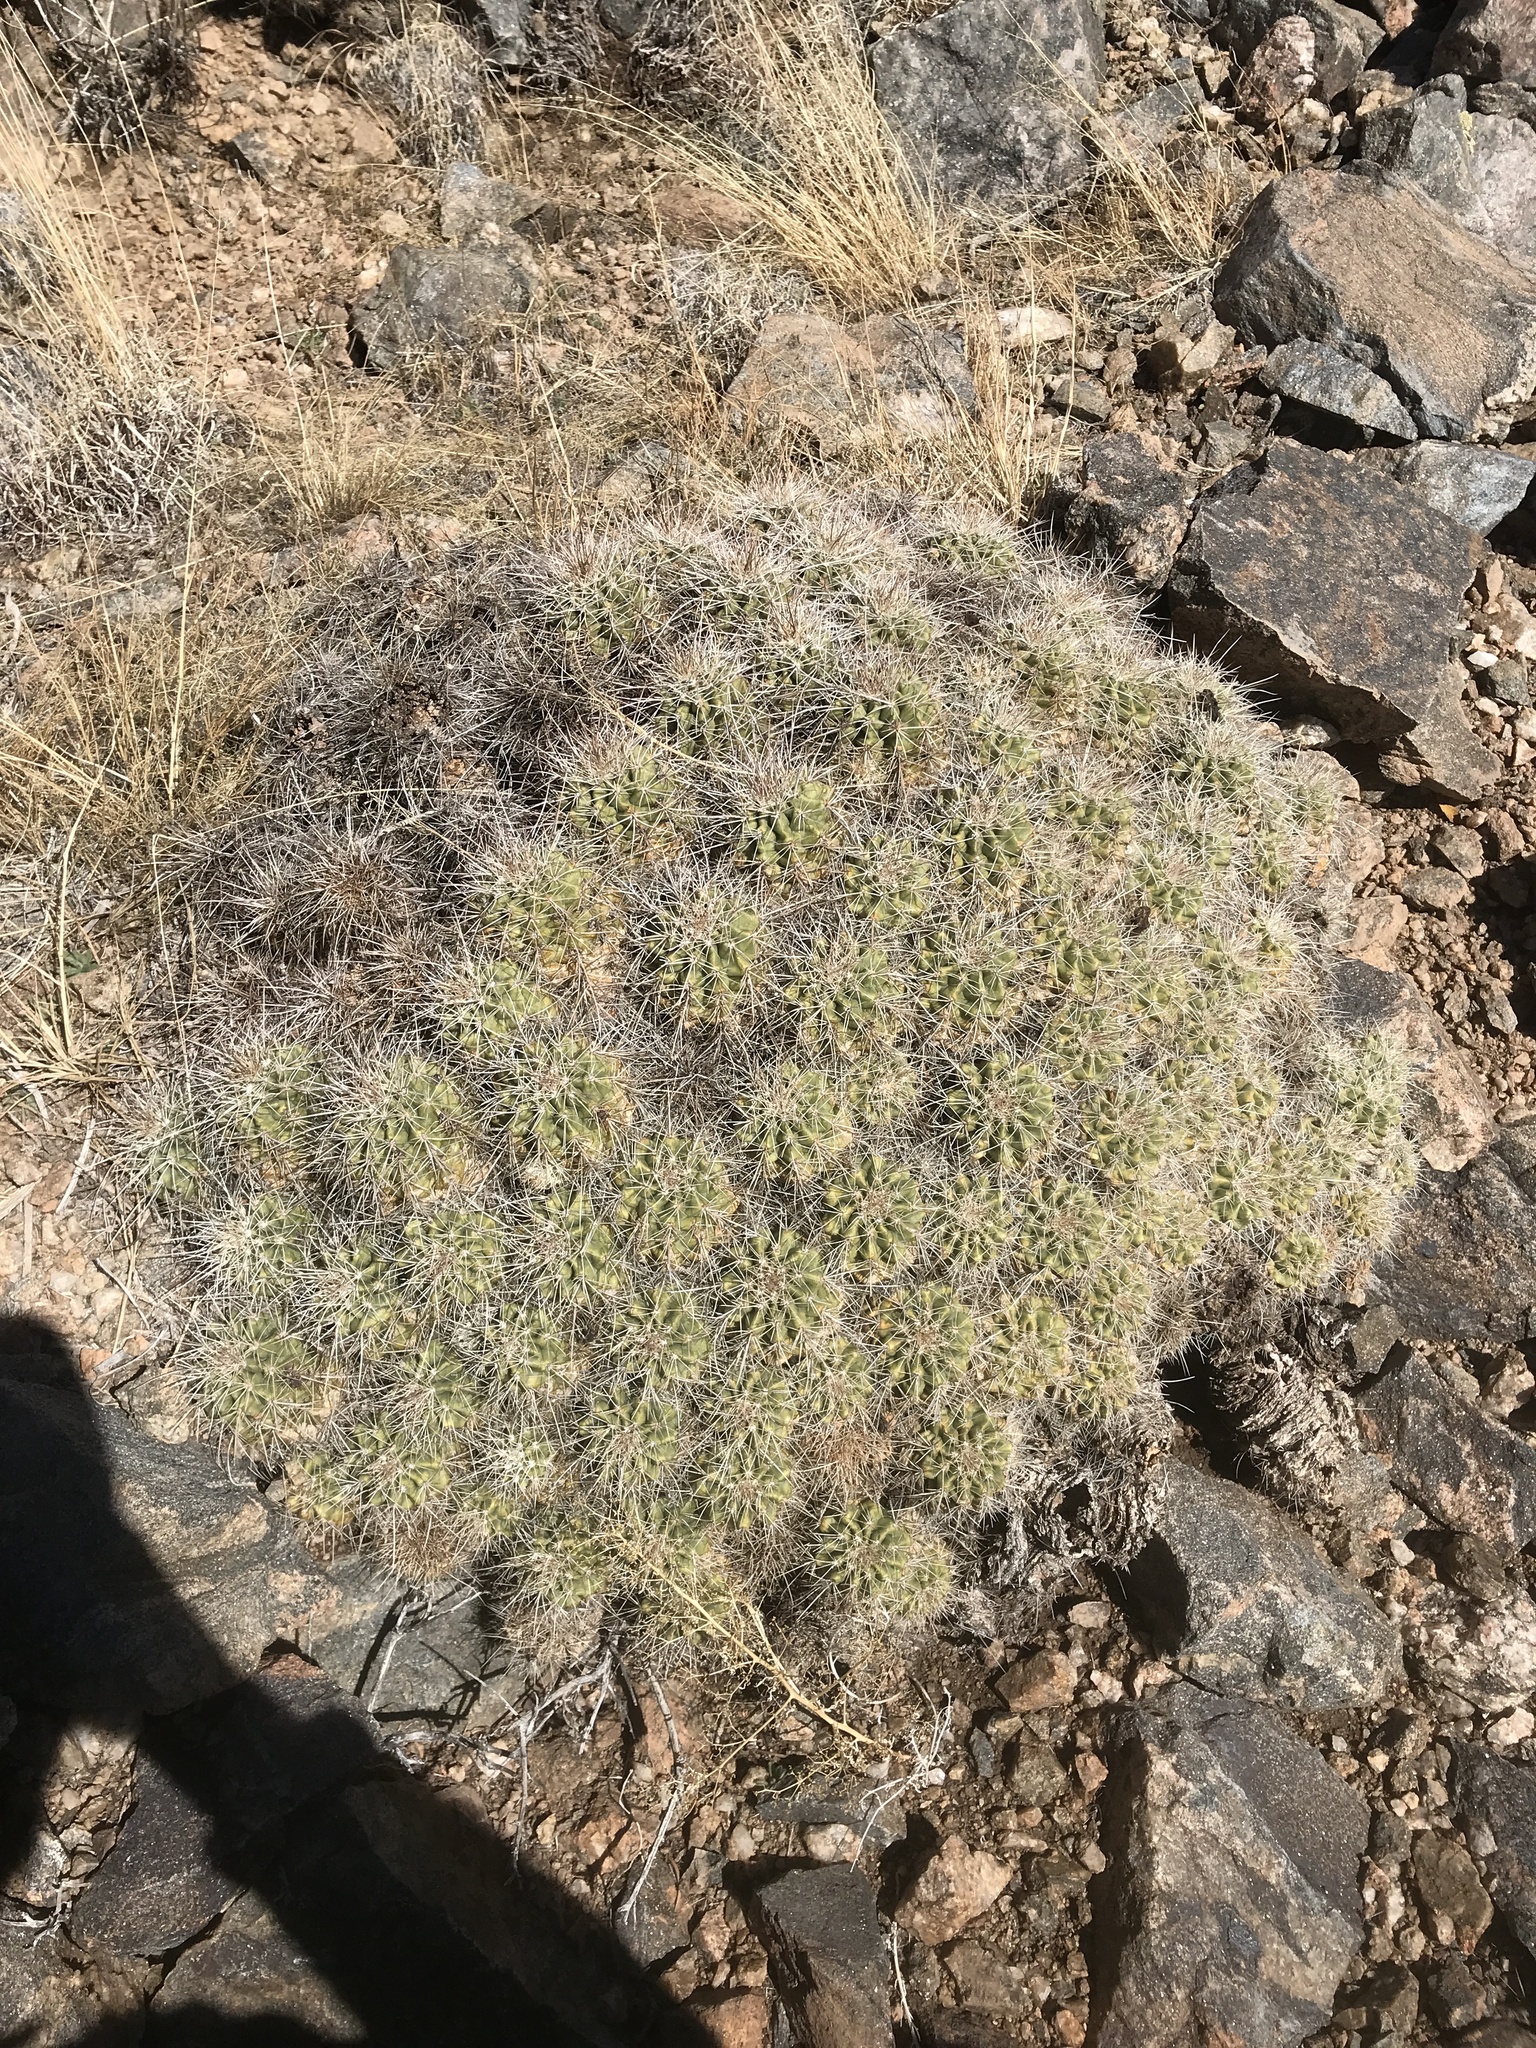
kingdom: Plantae
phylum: Tracheophyta
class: Magnoliopsida
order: Caryophyllales
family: Cactaceae
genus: Echinocereus
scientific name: Echinocereus coccineus
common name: Scarlet hedgehog cactus
